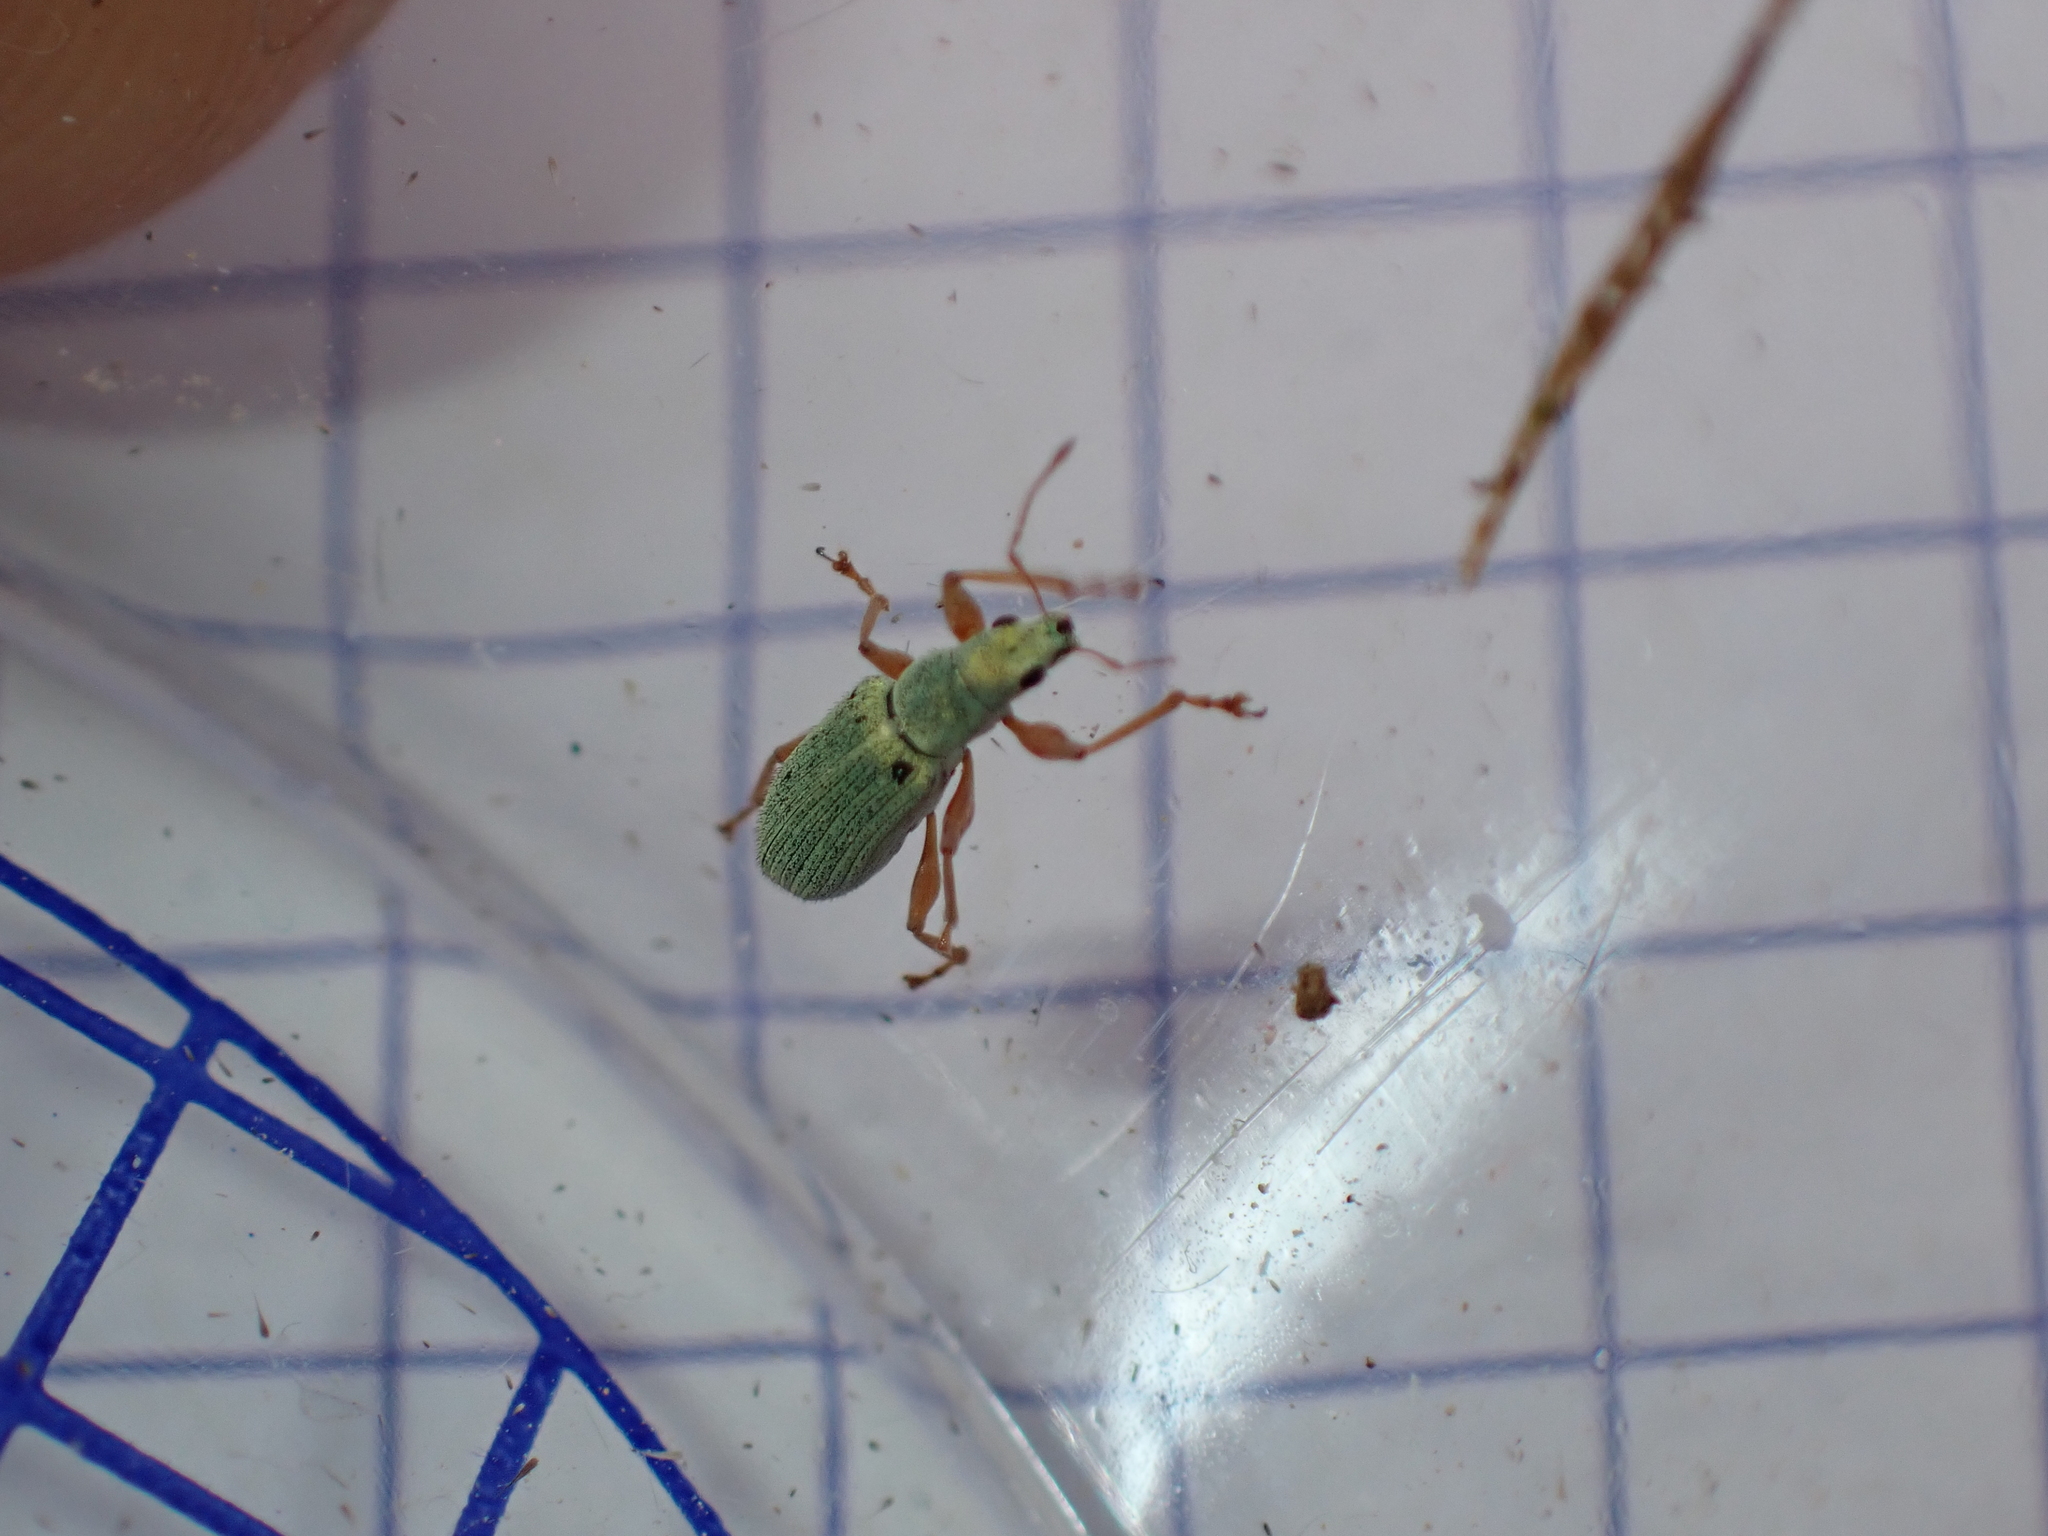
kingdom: Animalia
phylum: Arthropoda
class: Insecta
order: Coleoptera
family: Curculionidae
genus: Polydrusus
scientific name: Polydrusus impressifrons
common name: Weevil
